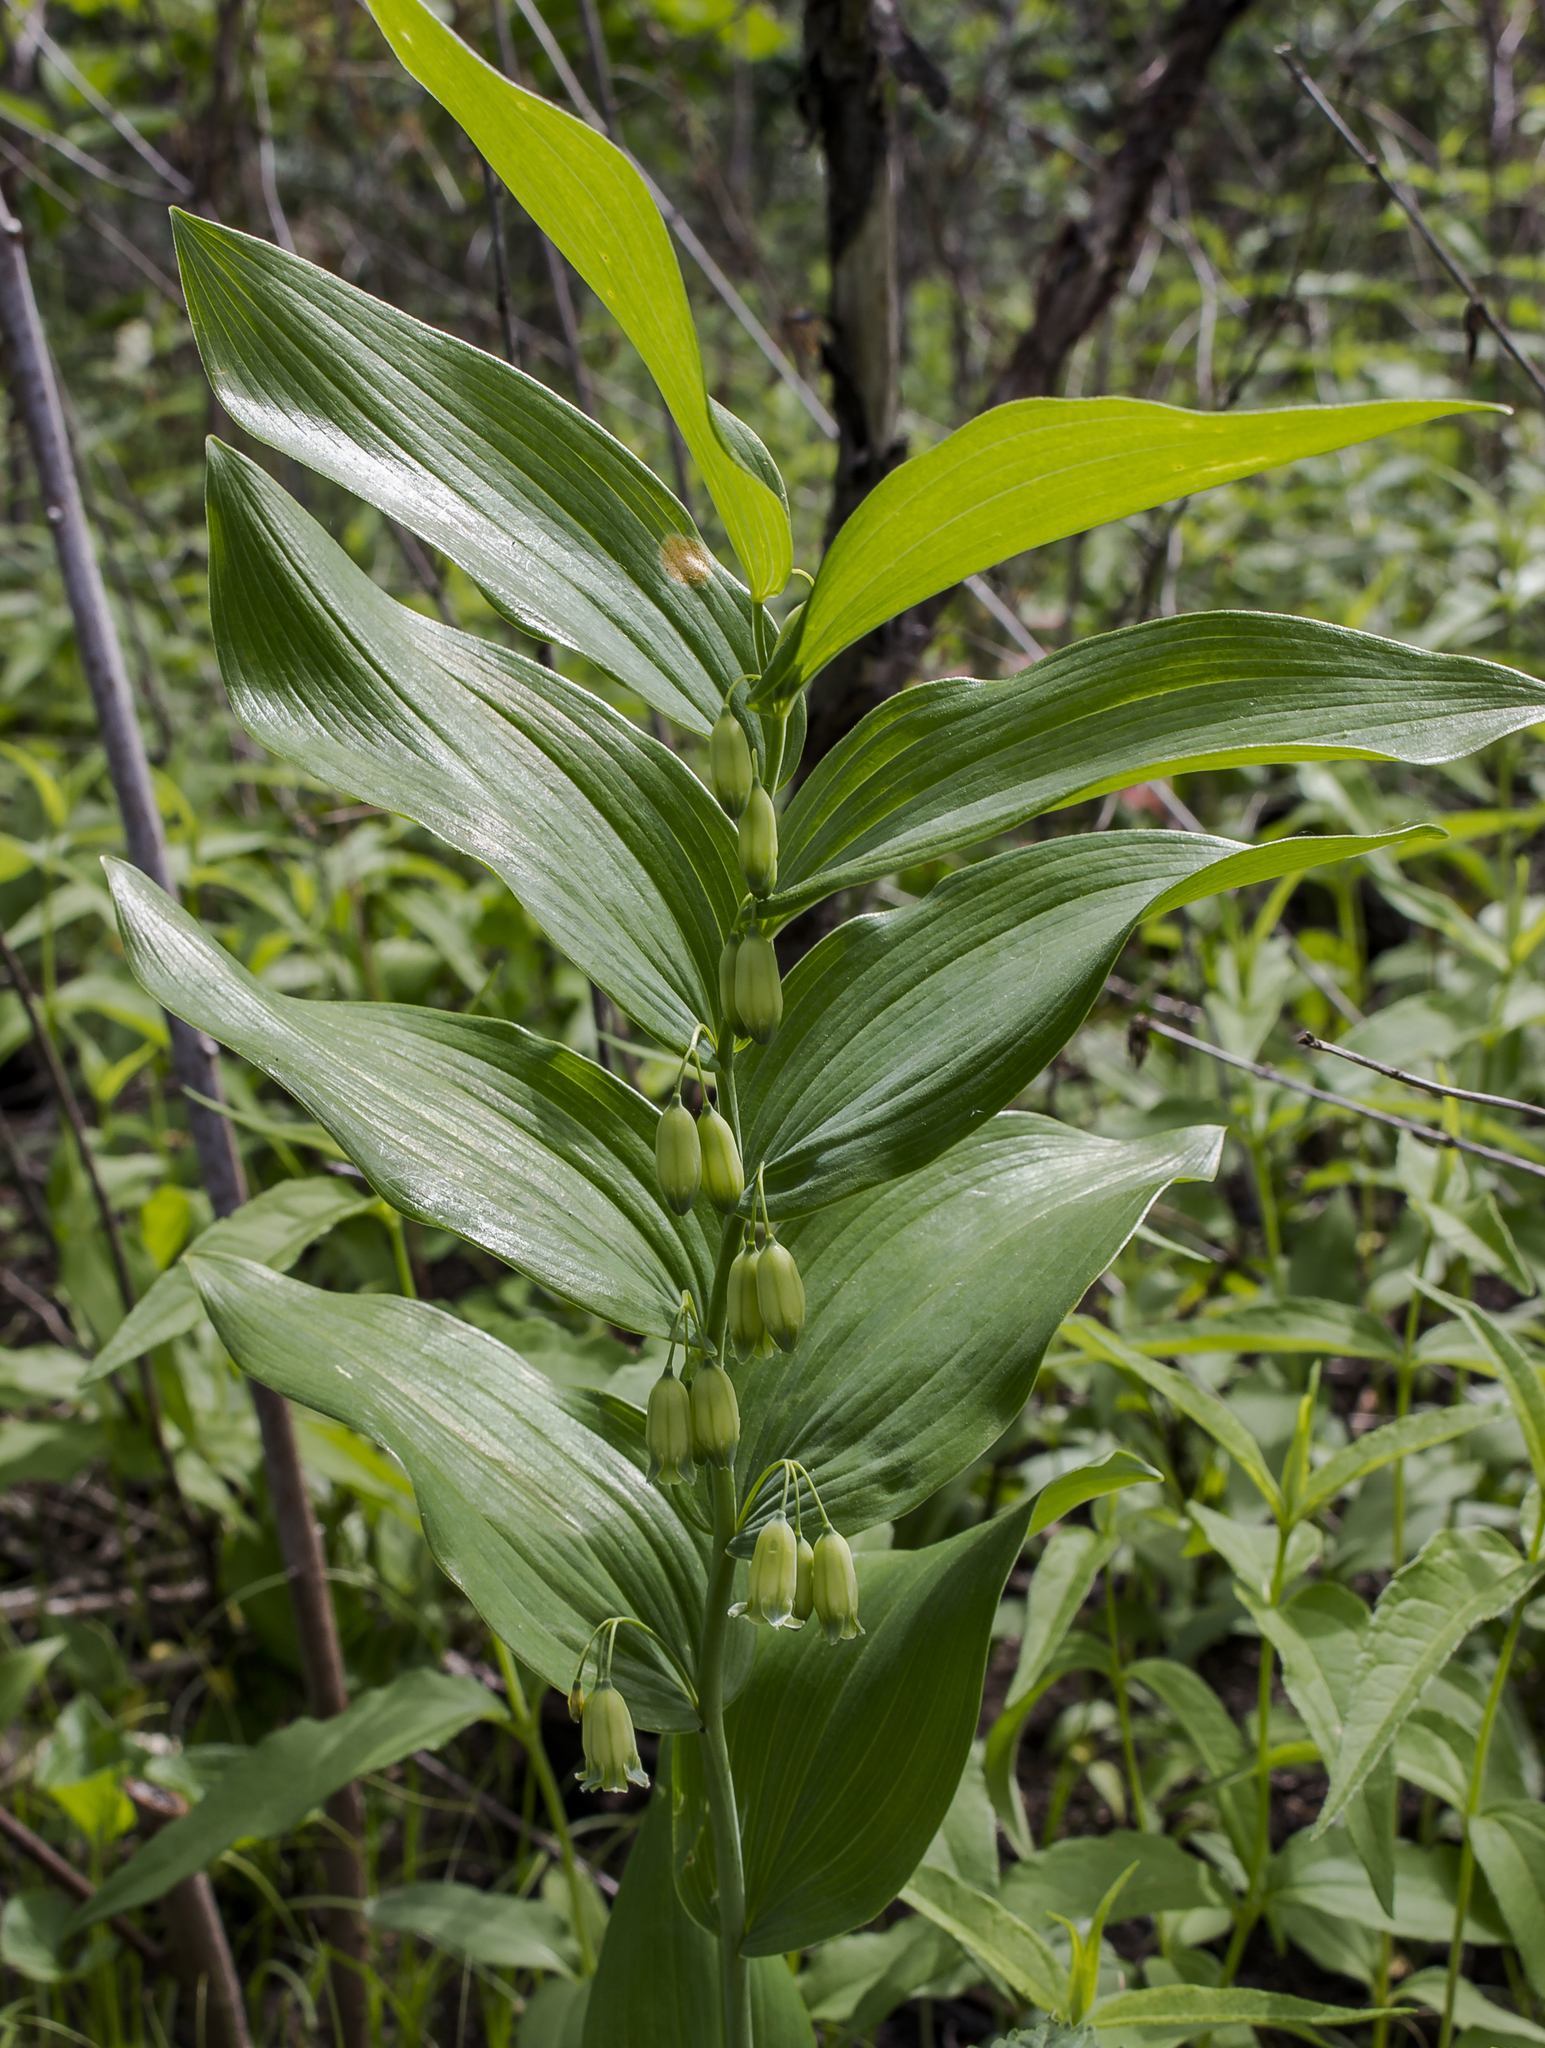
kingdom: Plantae
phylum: Tracheophyta
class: Liliopsida
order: Asparagales
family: Asparagaceae
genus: Polygonatum
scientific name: Polygonatum biflorum
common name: American solomon's-seal
